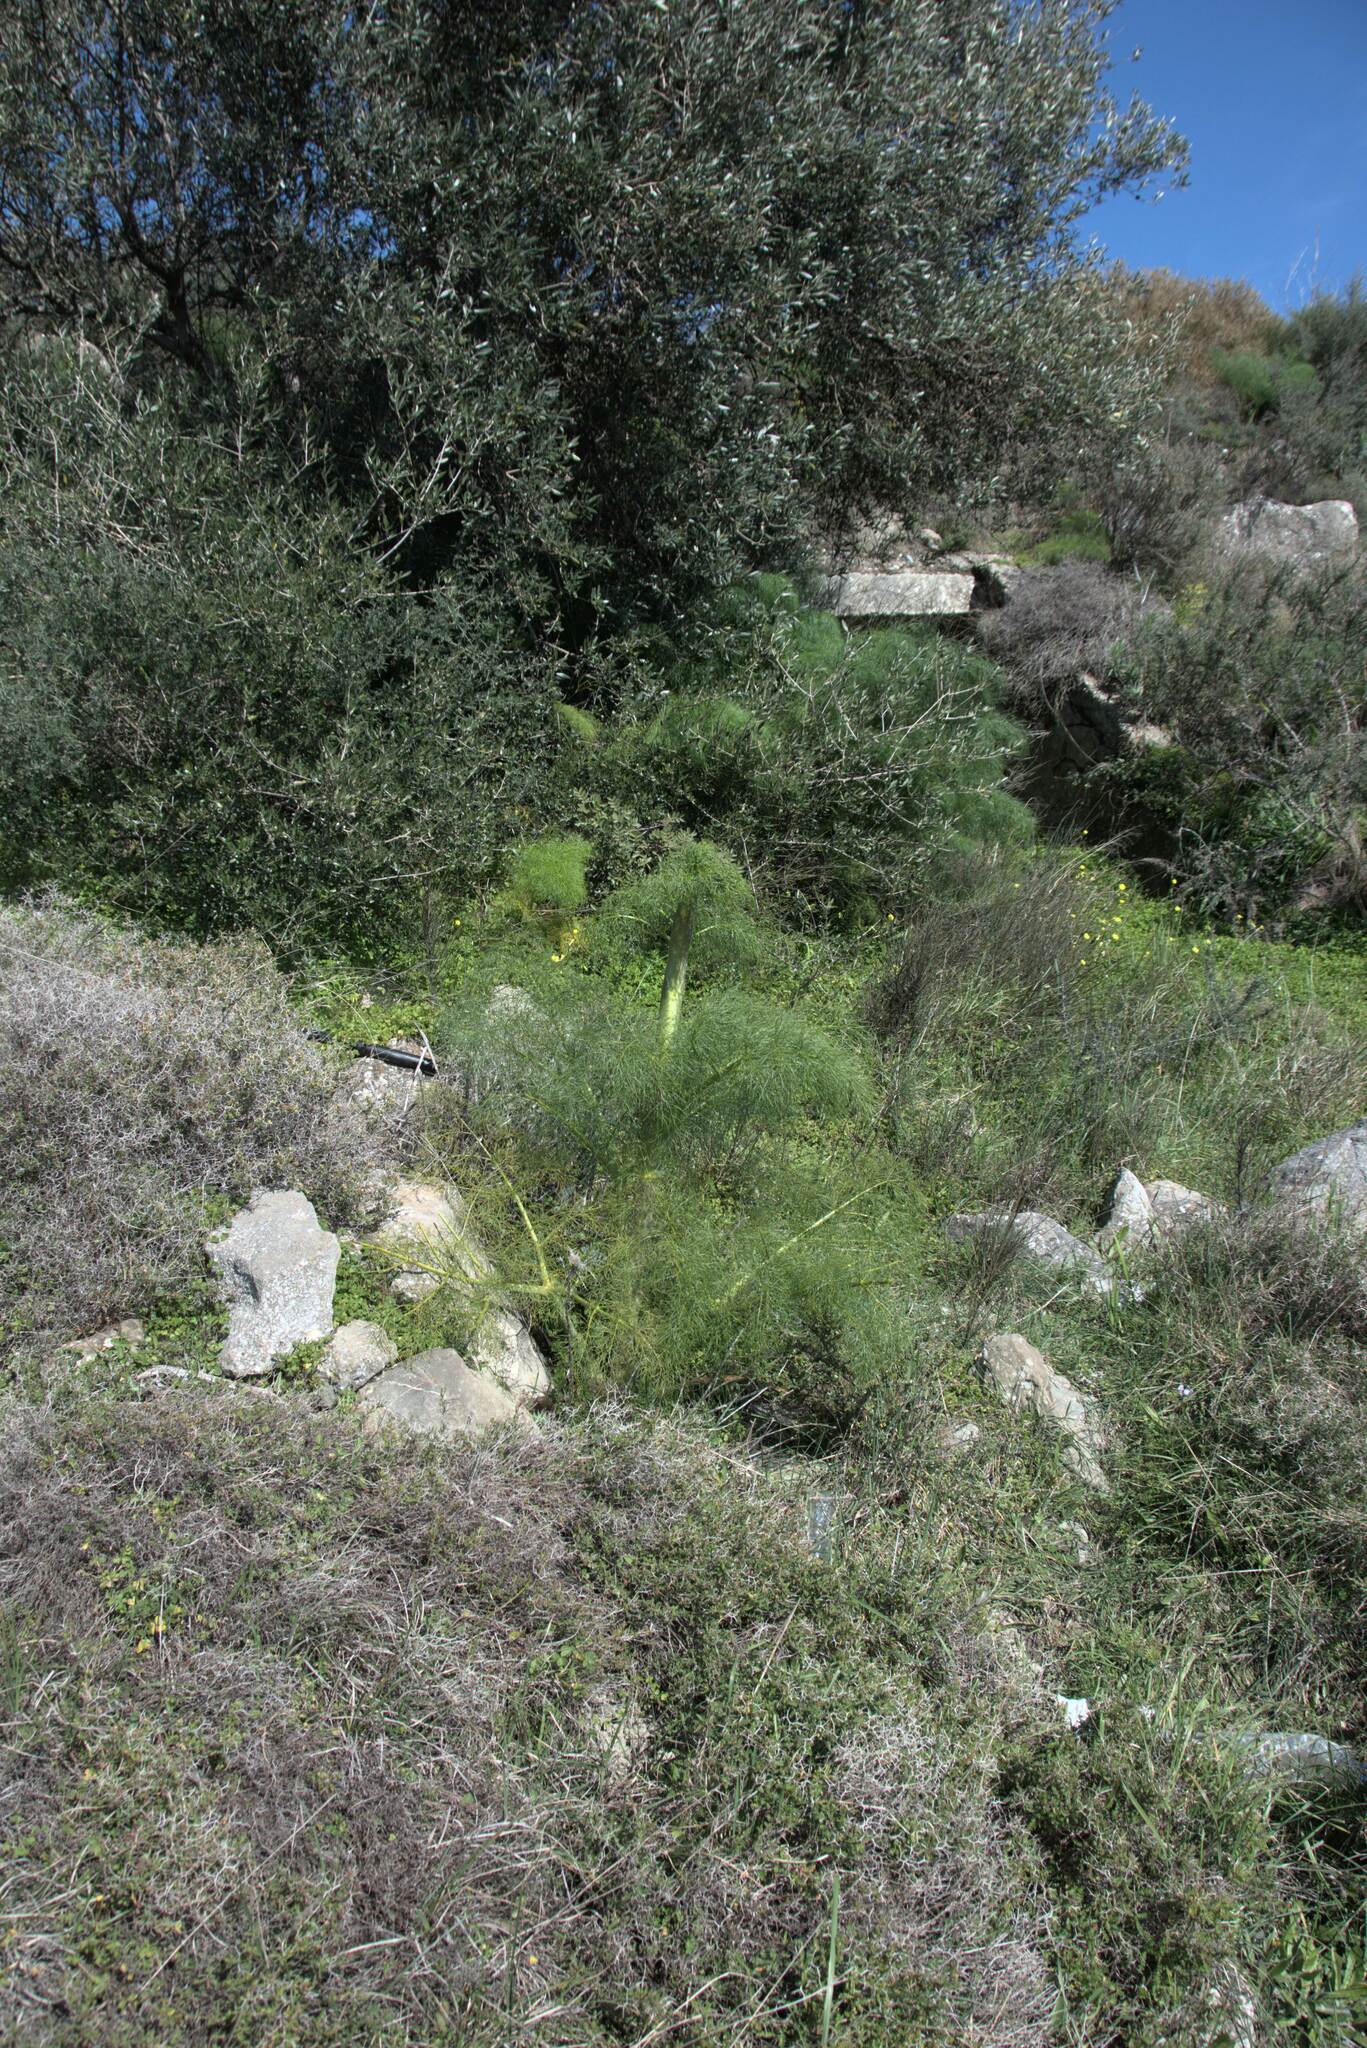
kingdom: Plantae
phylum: Tracheophyta
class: Magnoliopsida
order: Apiales
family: Apiaceae
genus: Ferula
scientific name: Ferula communis
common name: Giant fennel
